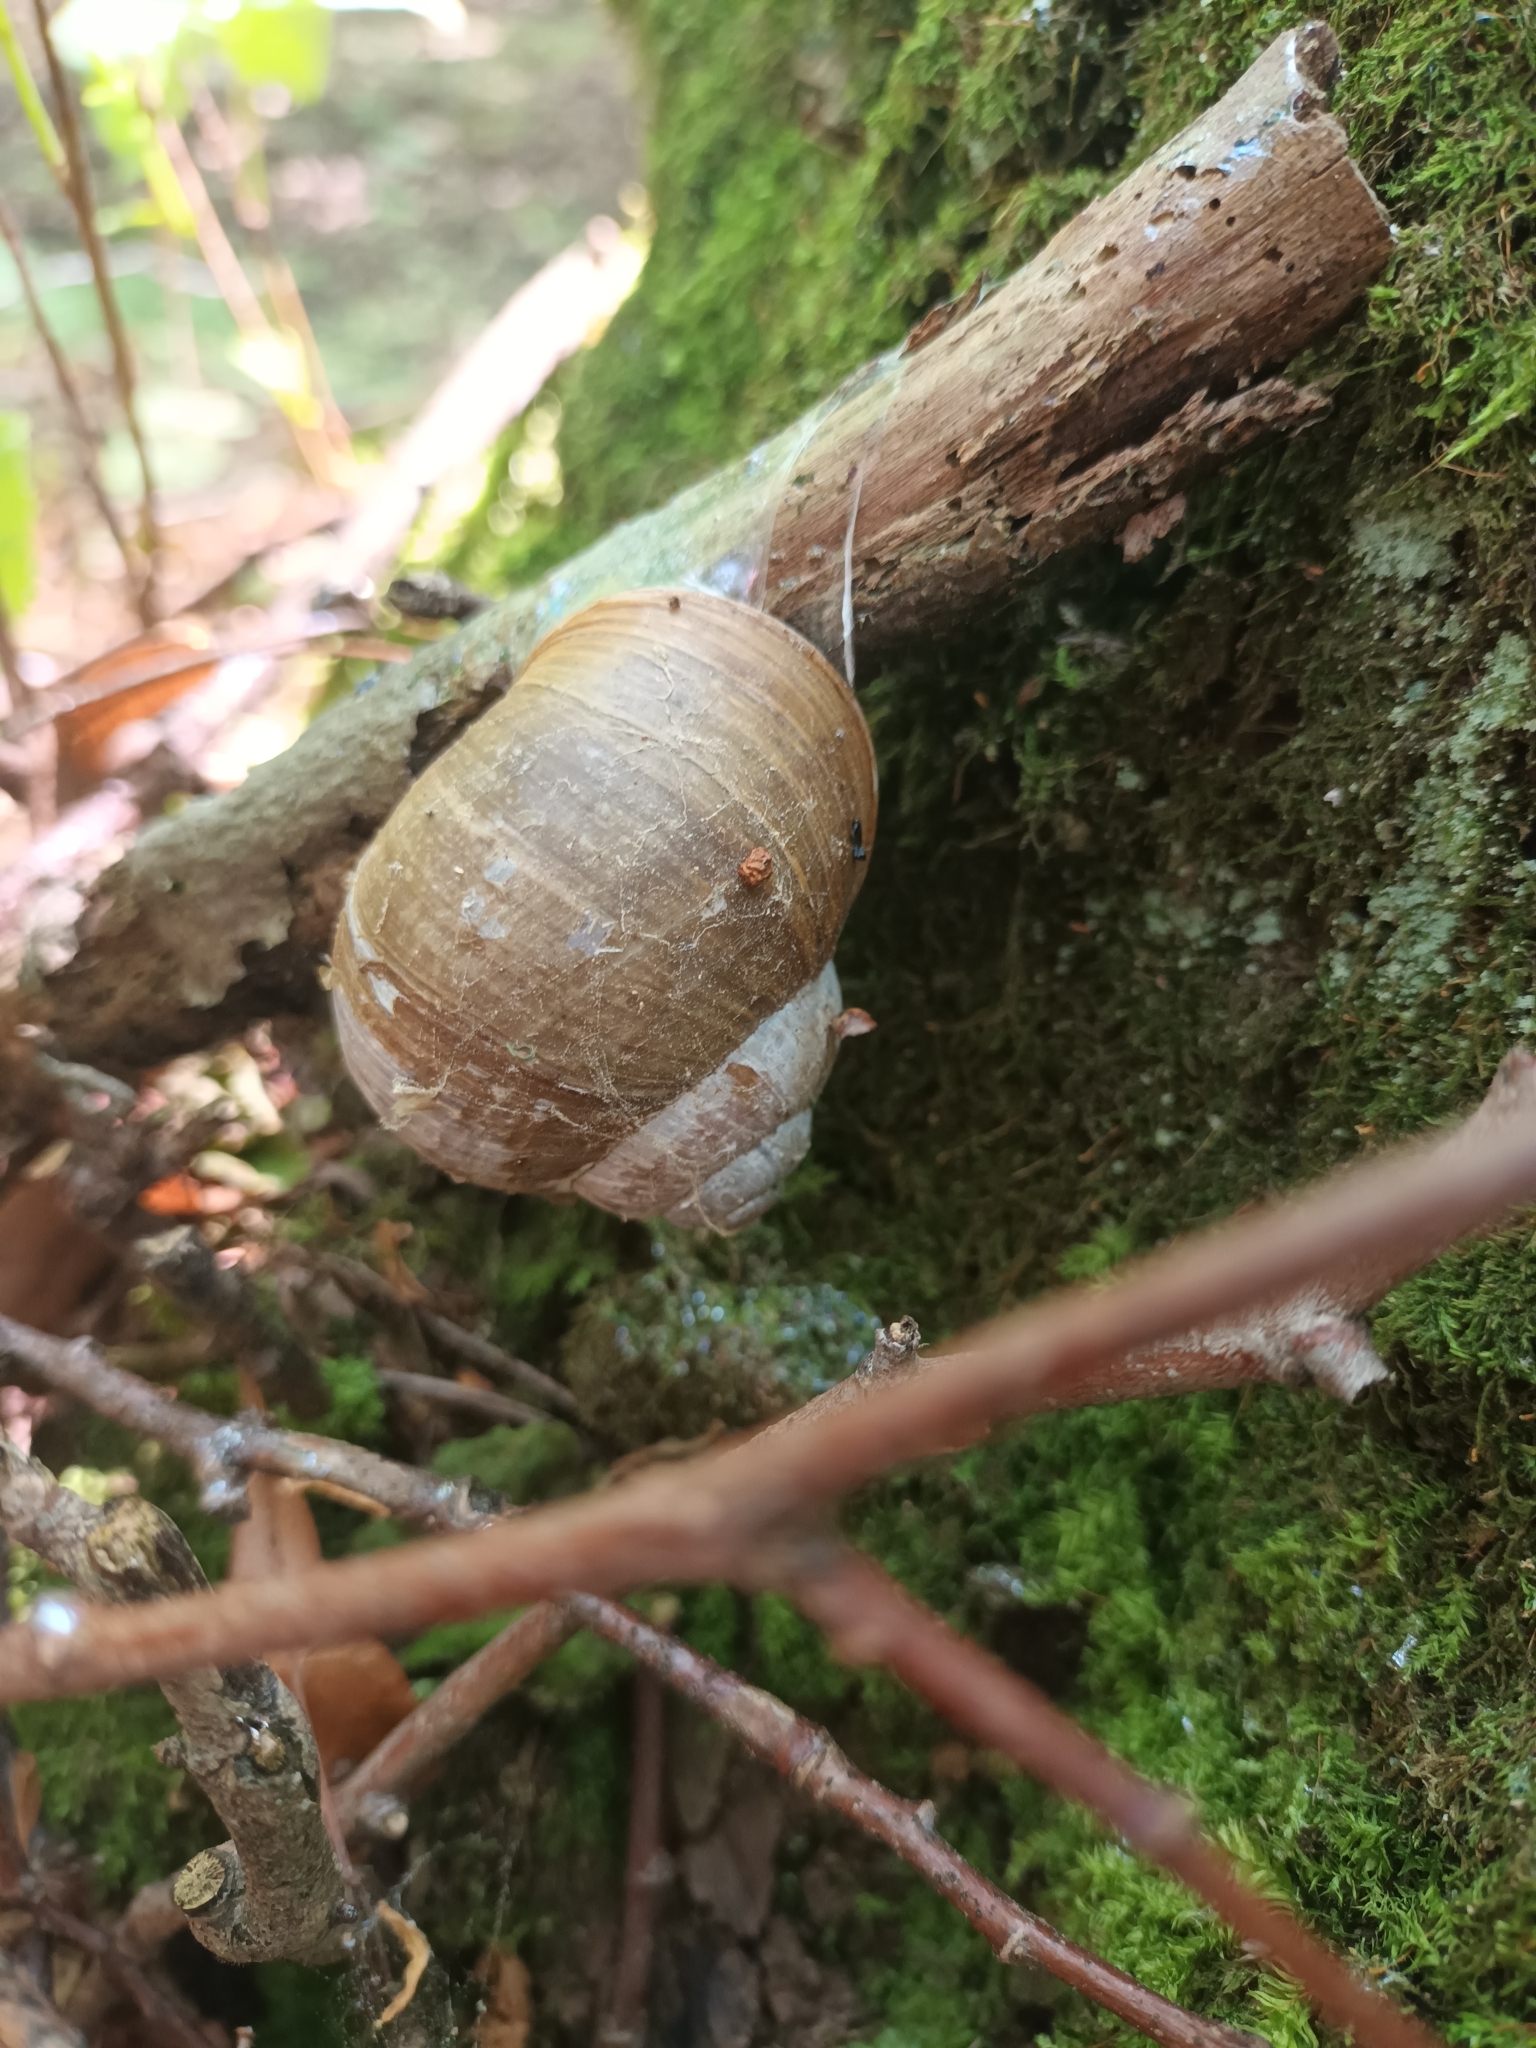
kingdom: Animalia
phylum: Mollusca
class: Gastropoda
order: Stylommatophora
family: Helicidae
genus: Helix
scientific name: Helix pomatia
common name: Roman snail
